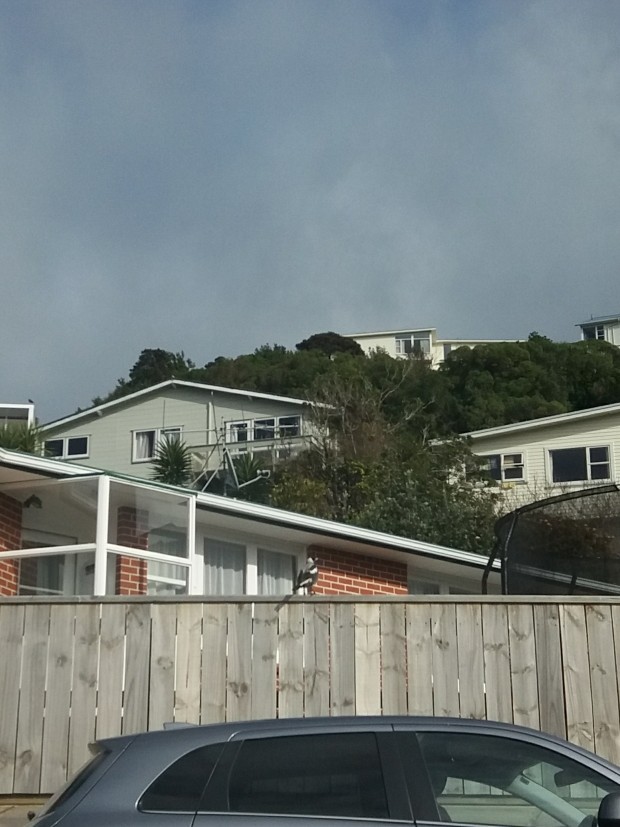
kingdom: Animalia
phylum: Chordata
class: Aves
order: Passeriformes
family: Cracticidae
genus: Gymnorhina
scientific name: Gymnorhina tibicen
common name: Australian magpie
